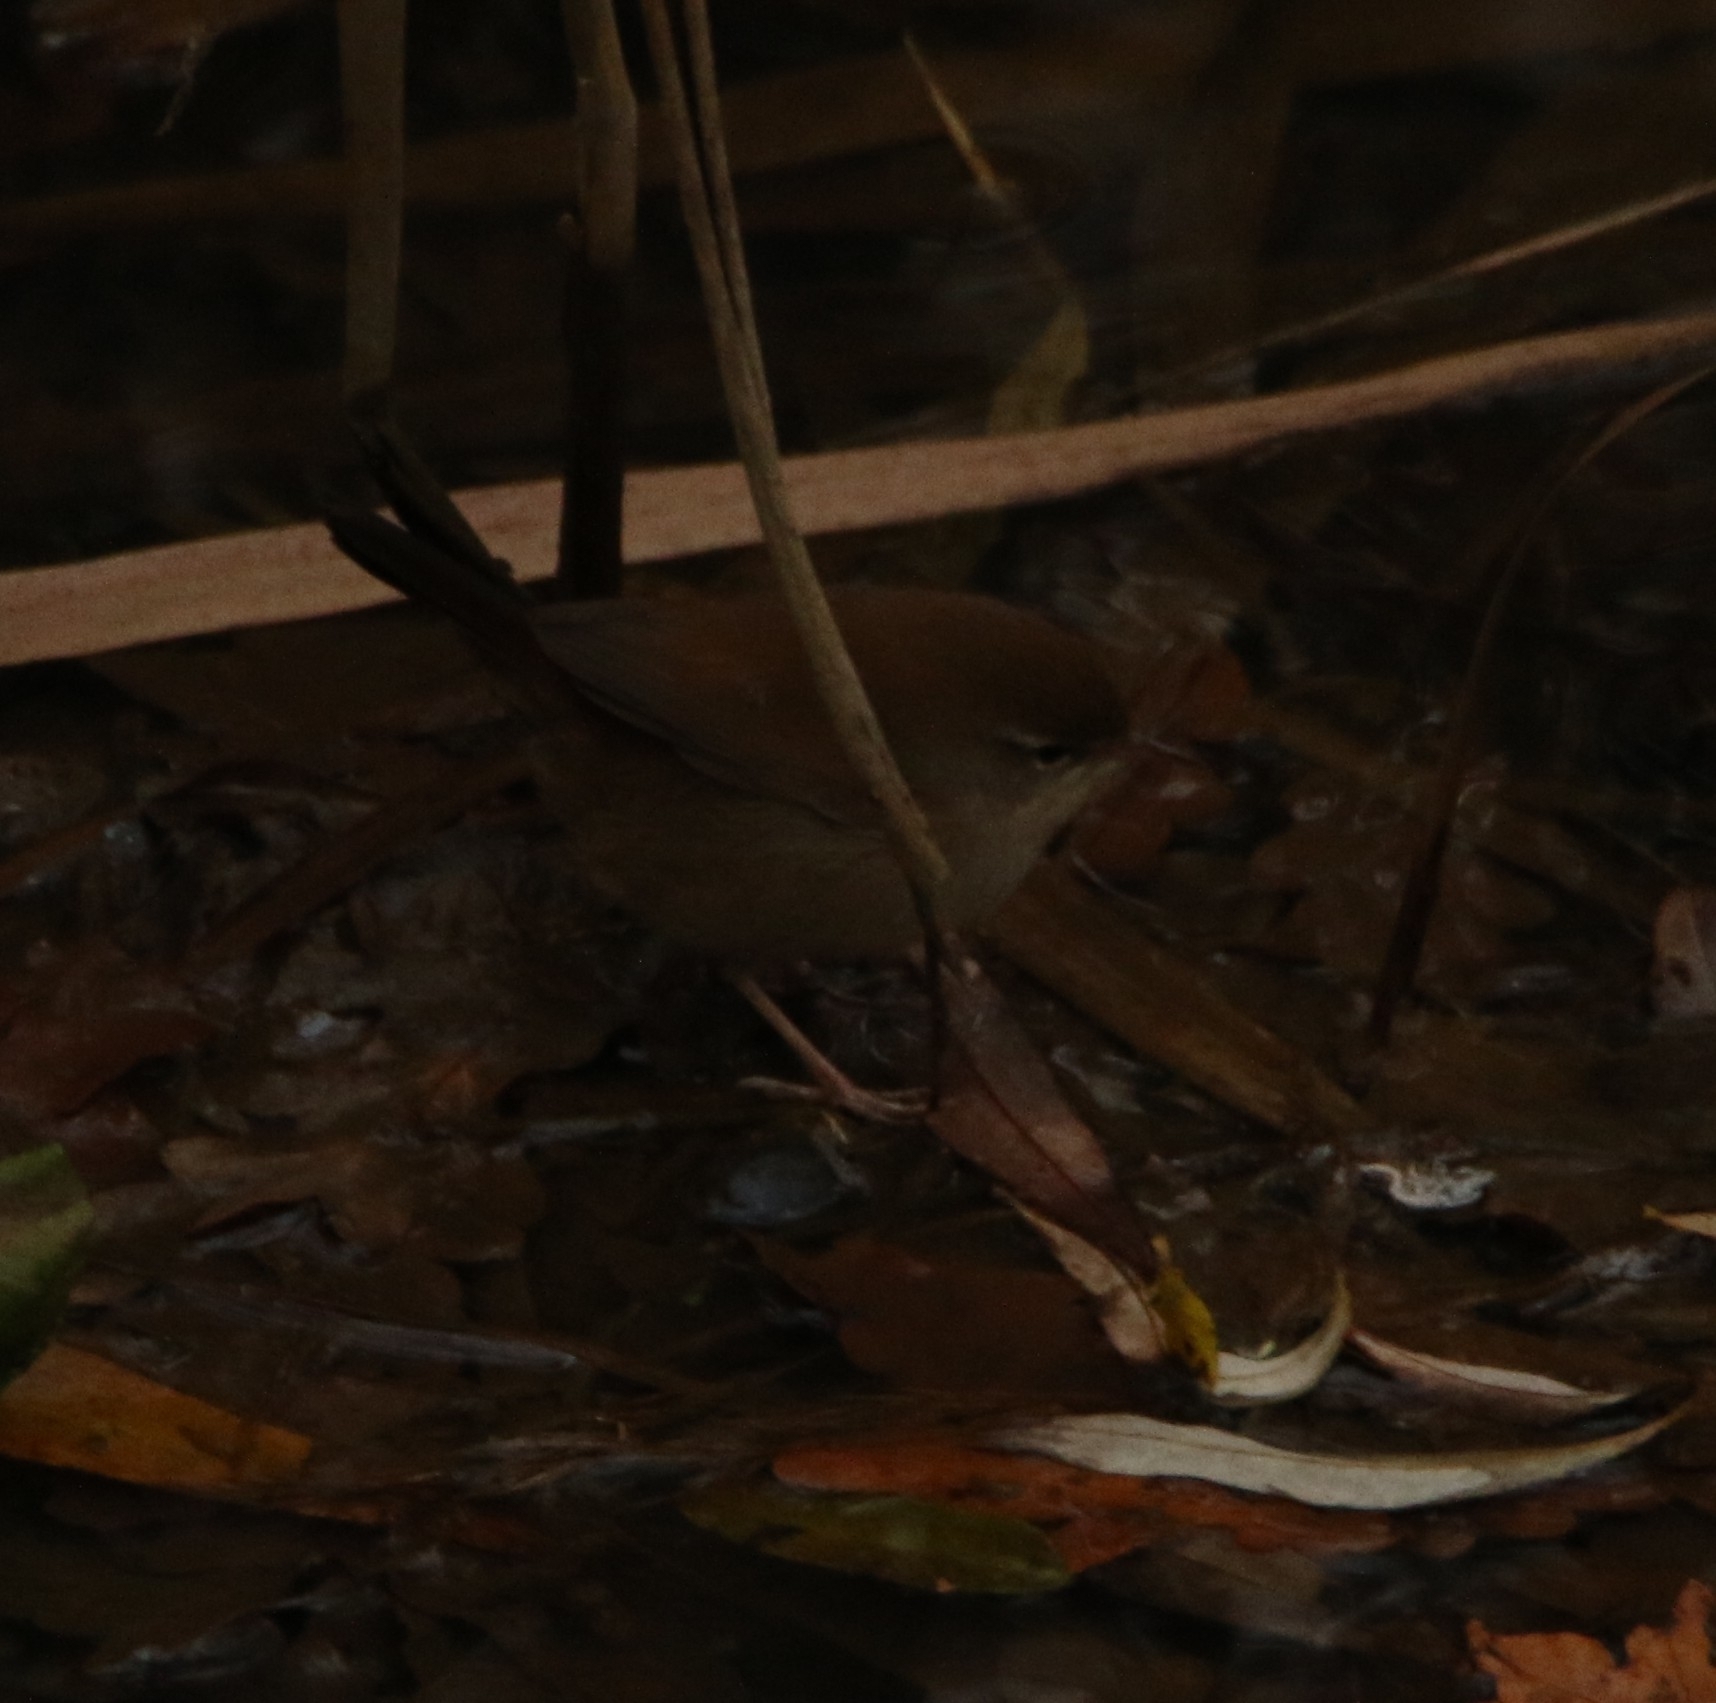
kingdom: Animalia
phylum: Chordata
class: Aves
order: Passeriformes
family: Cettiidae
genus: Cettia
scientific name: Cettia cetti
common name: Cetti's warbler
